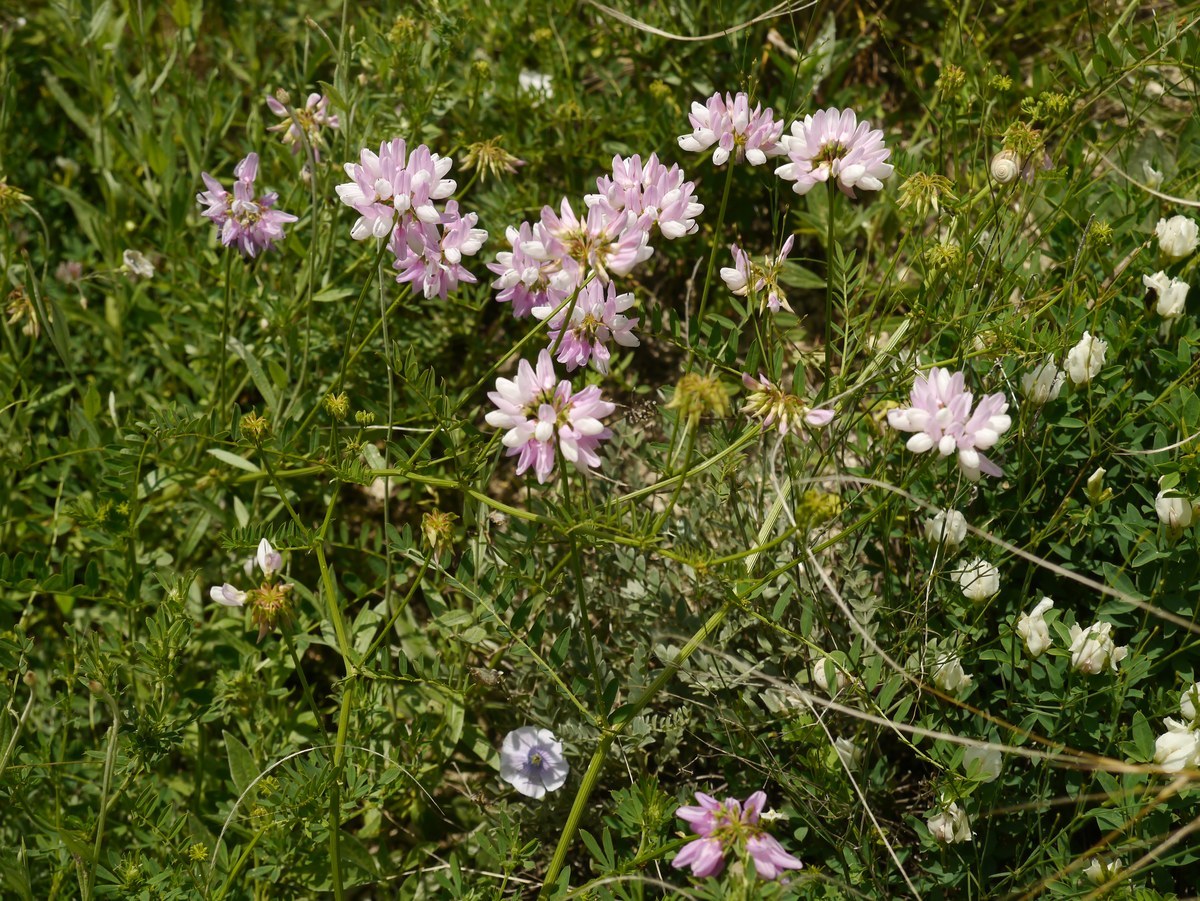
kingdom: Plantae
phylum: Tracheophyta
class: Magnoliopsida
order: Fabales
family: Fabaceae
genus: Coronilla
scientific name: Coronilla varia
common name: Crownvetch
